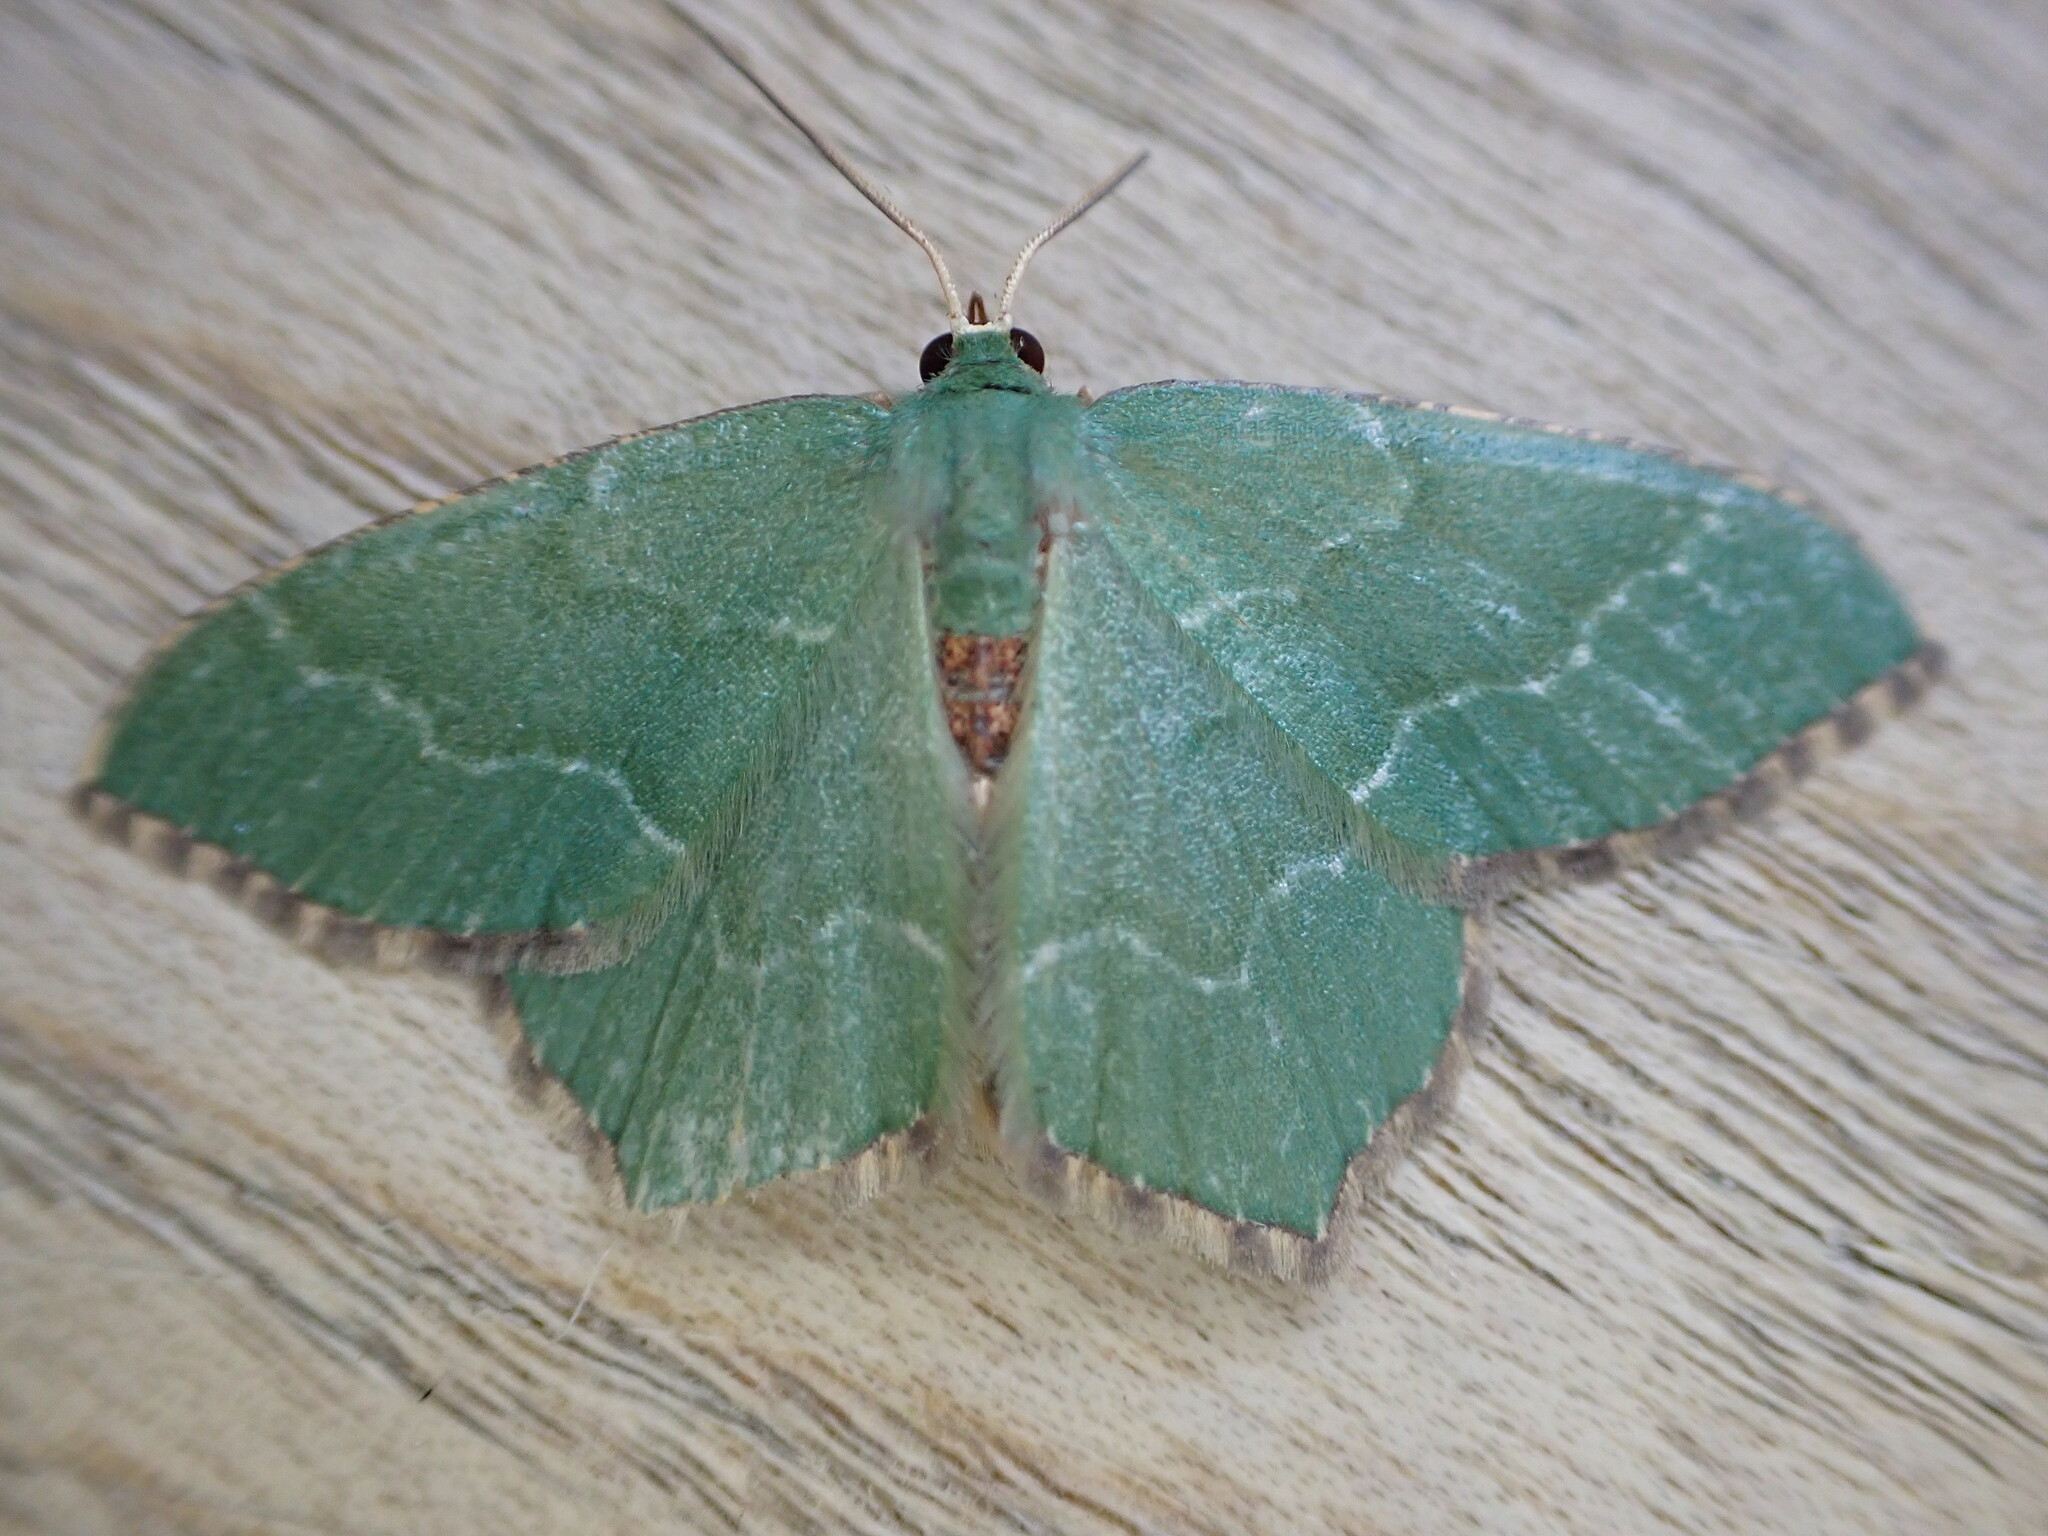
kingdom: Animalia
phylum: Arthropoda
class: Insecta
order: Lepidoptera
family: Geometridae
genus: Hemithea
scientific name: Hemithea aestivaria
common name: Common emerald
